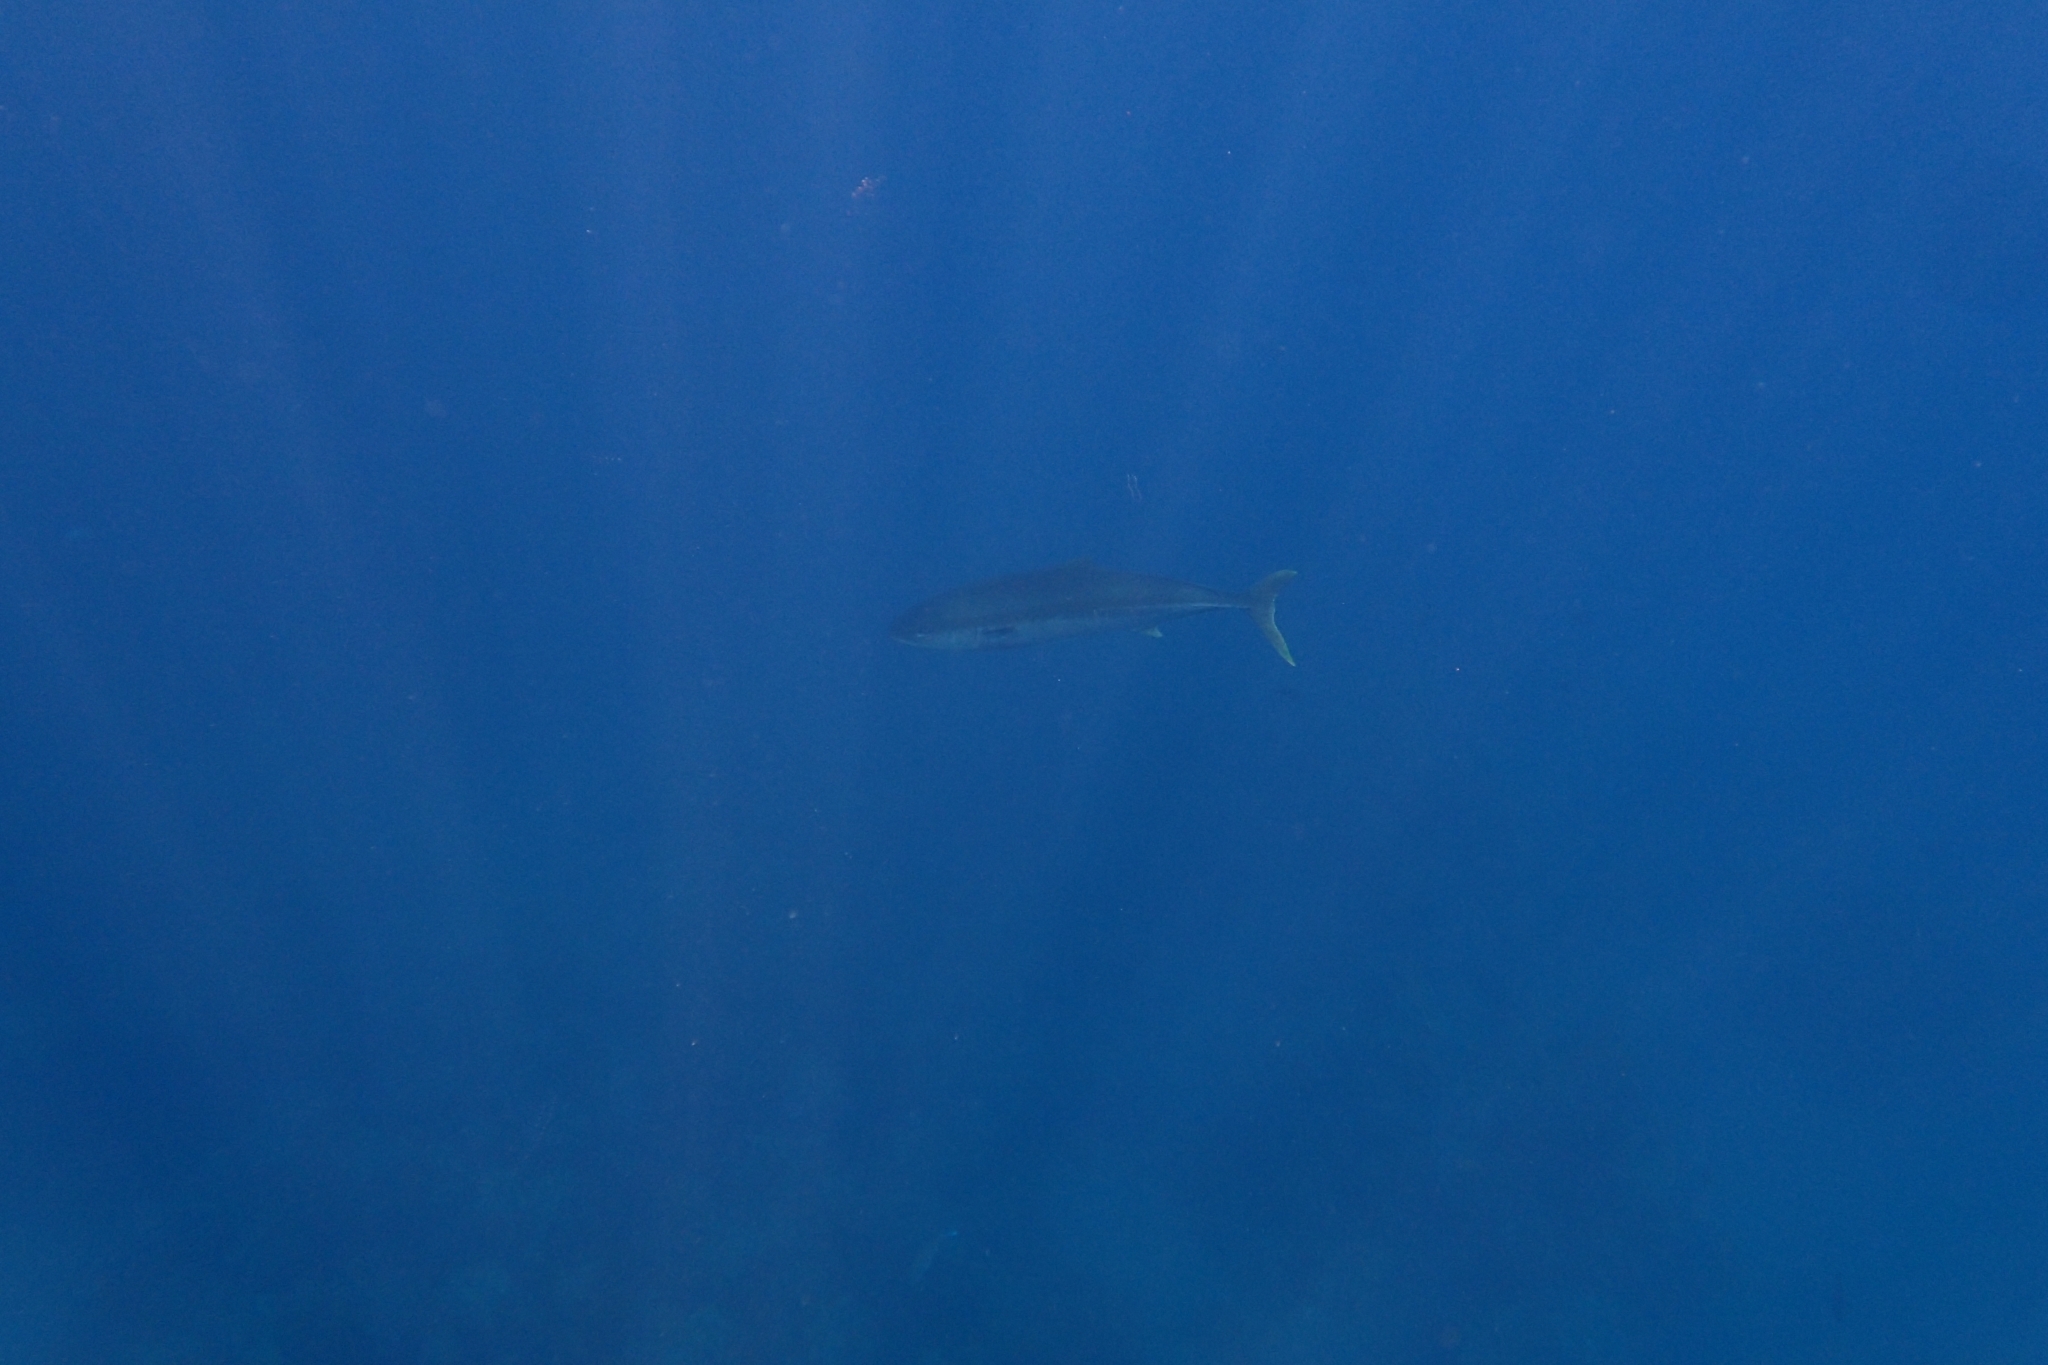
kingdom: Animalia
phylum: Chordata
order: Perciformes
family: Carangidae
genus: Seriola
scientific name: Seriola lalandi
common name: Yellowtail kingfish
